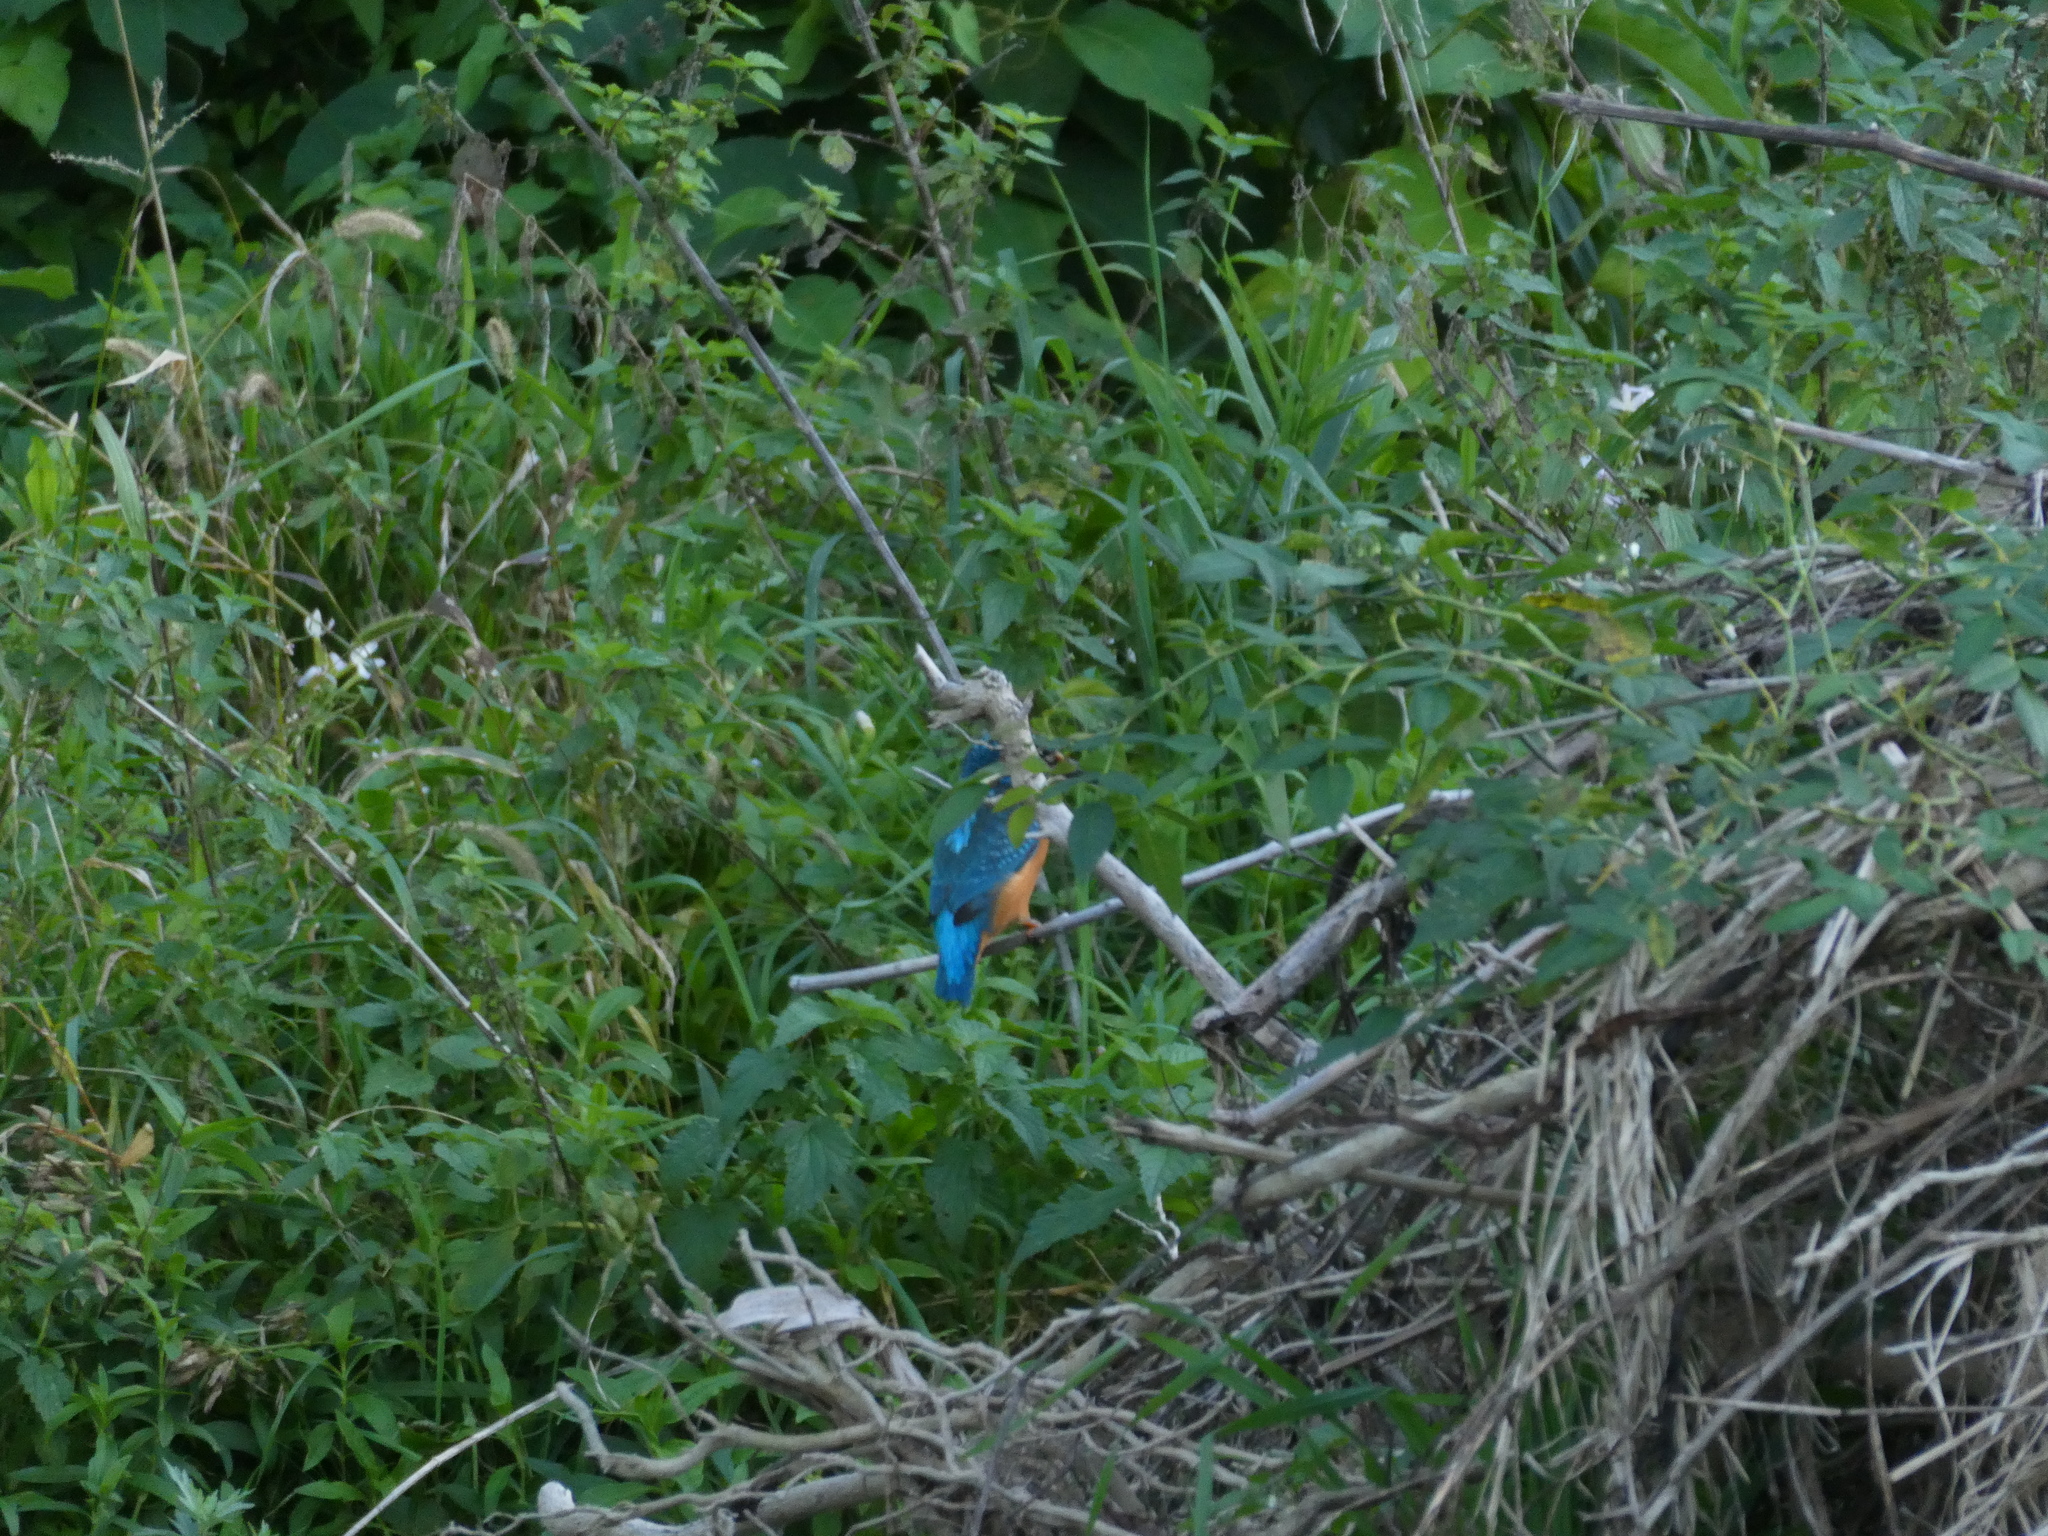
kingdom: Animalia
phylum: Chordata
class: Aves
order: Coraciiformes
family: Alcedinidae
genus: Alcedo
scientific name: Alcedo atthis
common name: Common kingfisher
